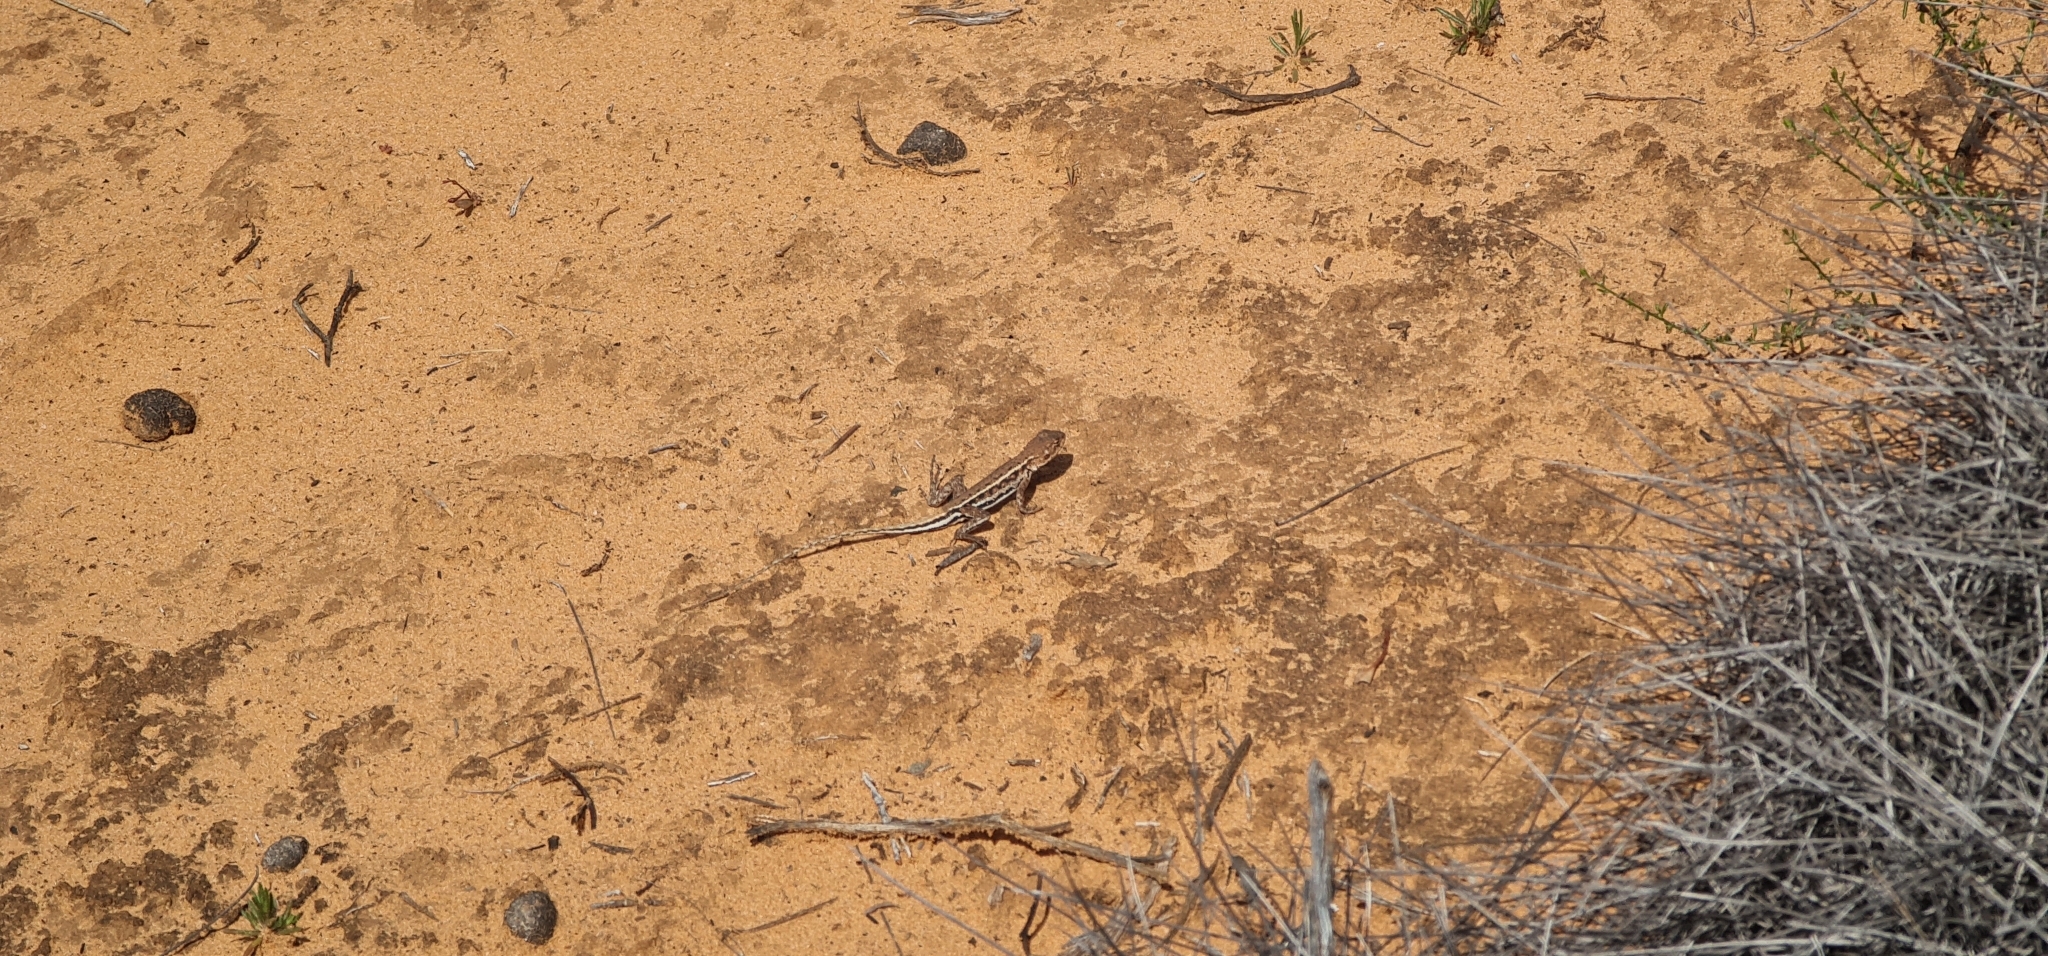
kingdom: Animalia
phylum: Chordata
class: Squamata
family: Agamidae
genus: Ctenophorus
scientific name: Ctenophorus spinodomus
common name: Eastern mallee dragon
